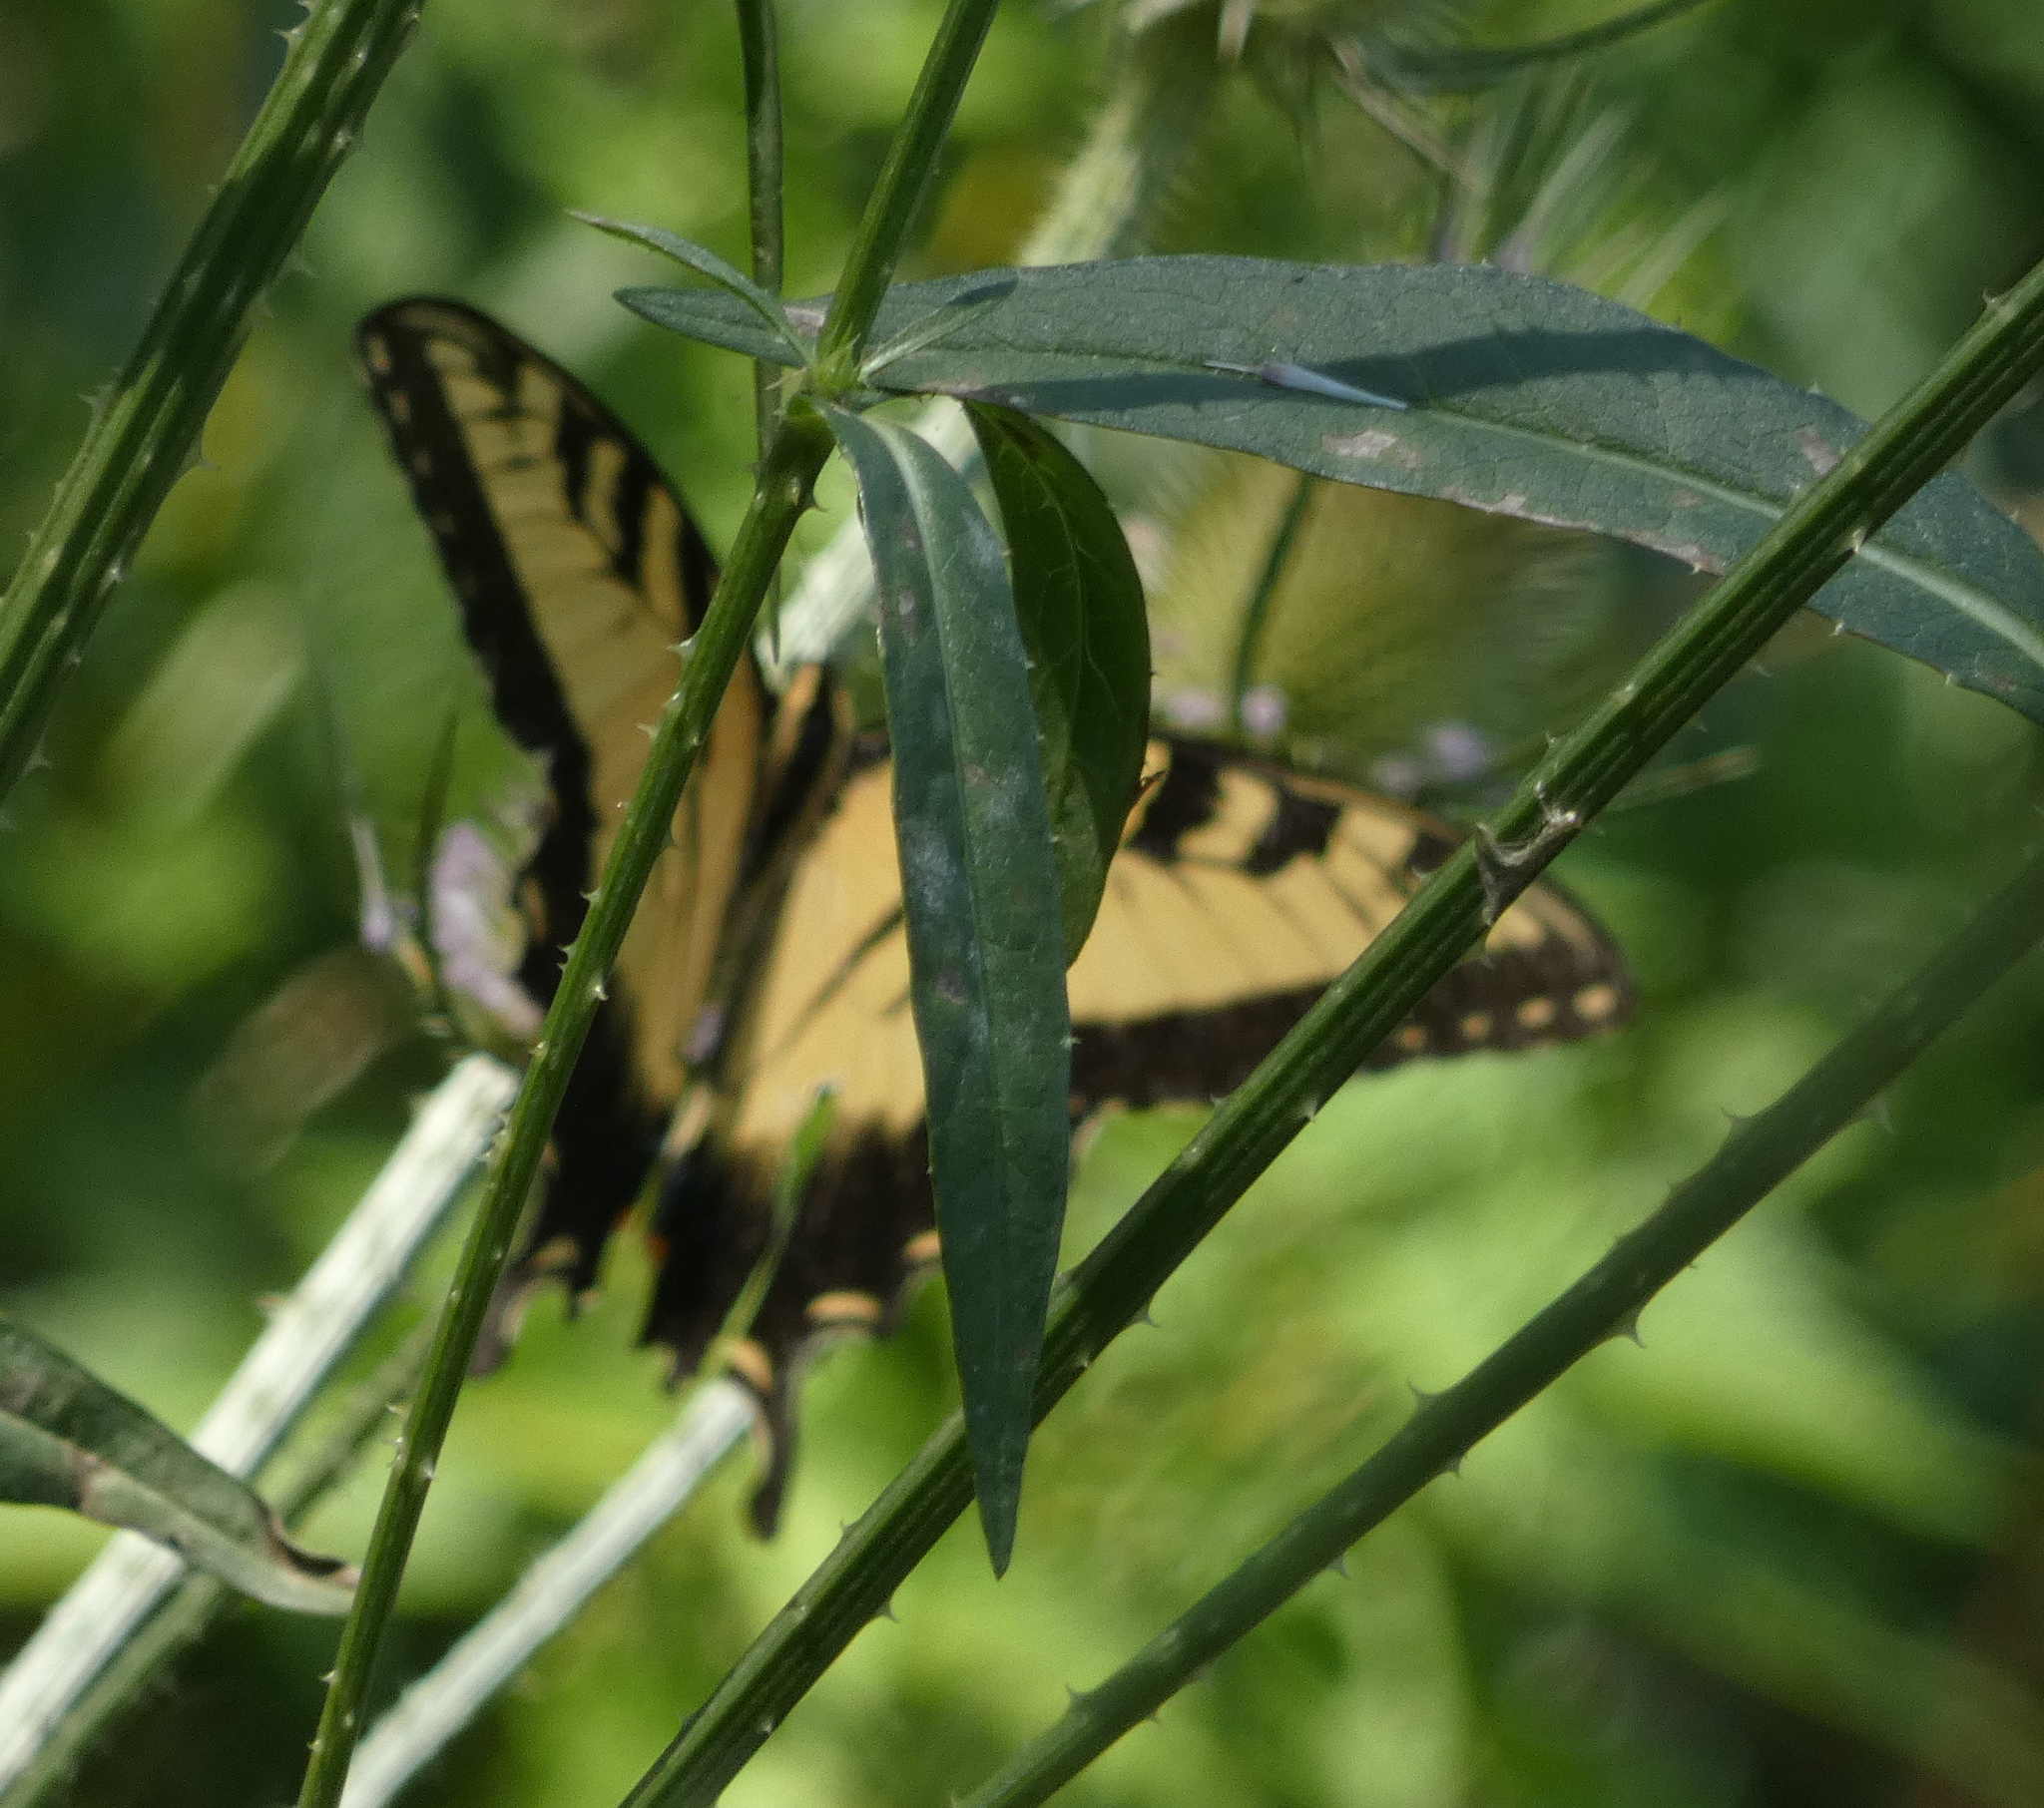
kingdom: Animalia
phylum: Arthropoda
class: Insecta
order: Lepidoptera
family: Papilionidae
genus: Papilio
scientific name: Papilio glaucus
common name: Tiger swallowtail
